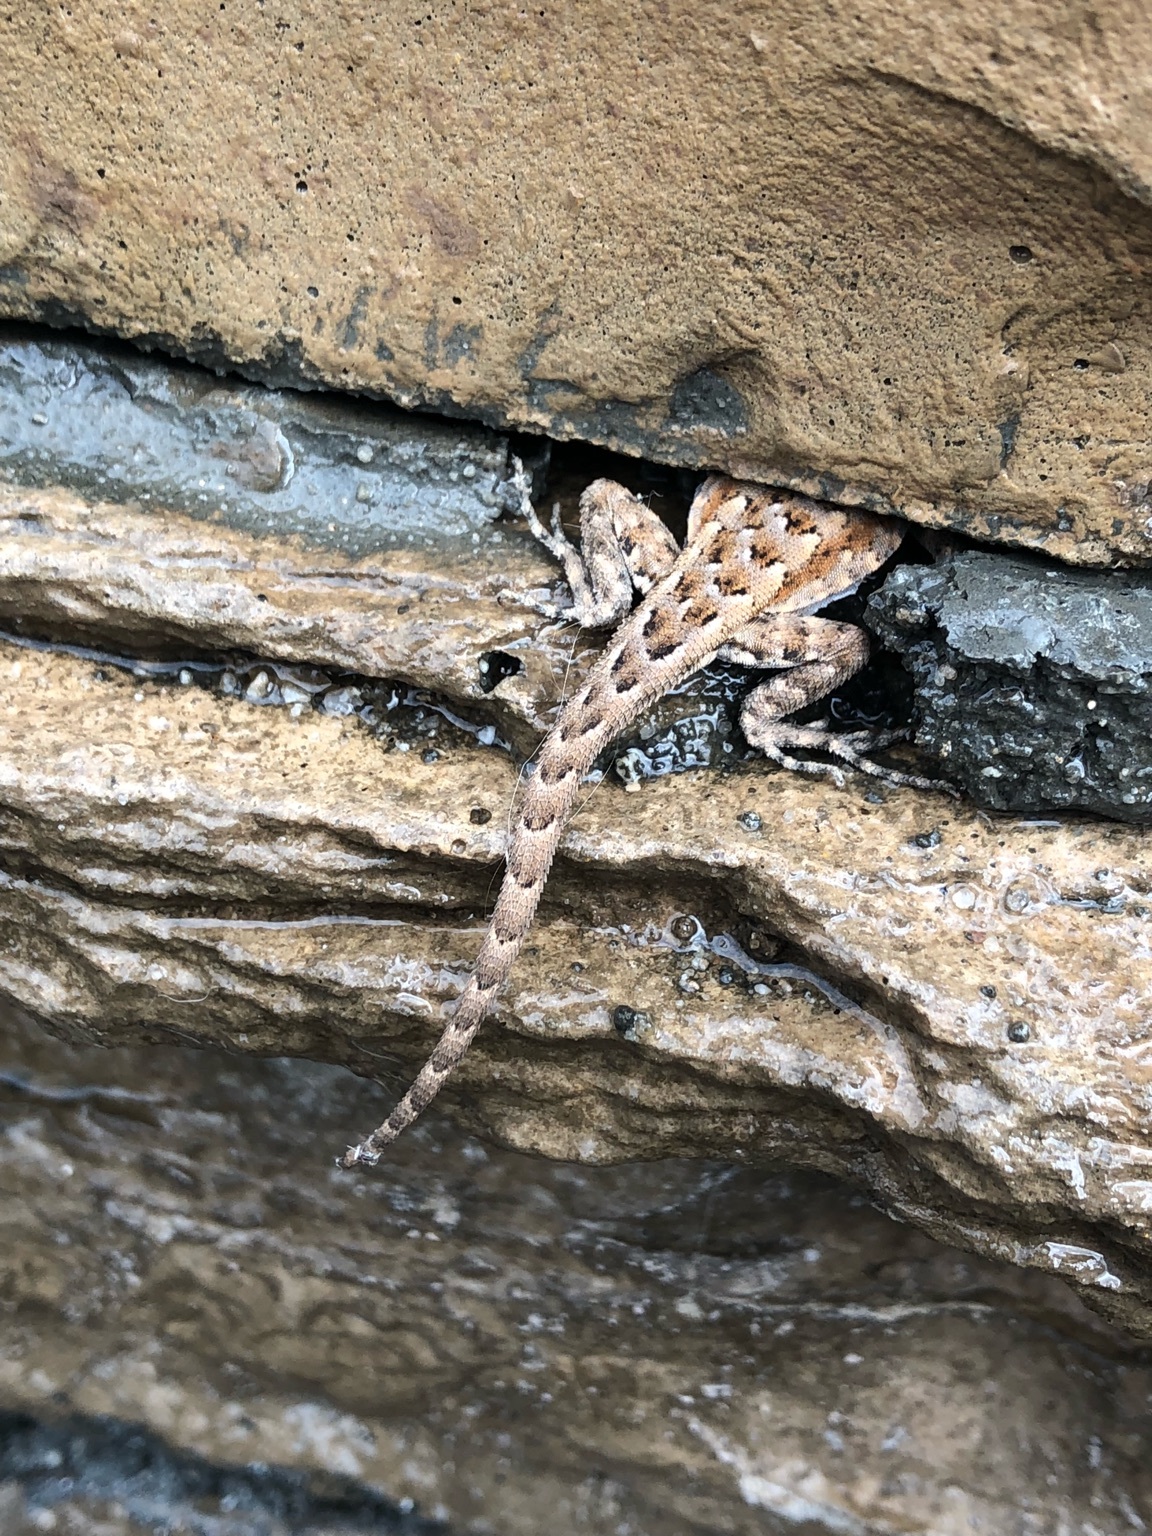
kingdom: Animalia
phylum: Chordata
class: Squamata
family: Phrynosomatidae
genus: Uta
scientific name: Uta stansburiana
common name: Side-blotched lizard
